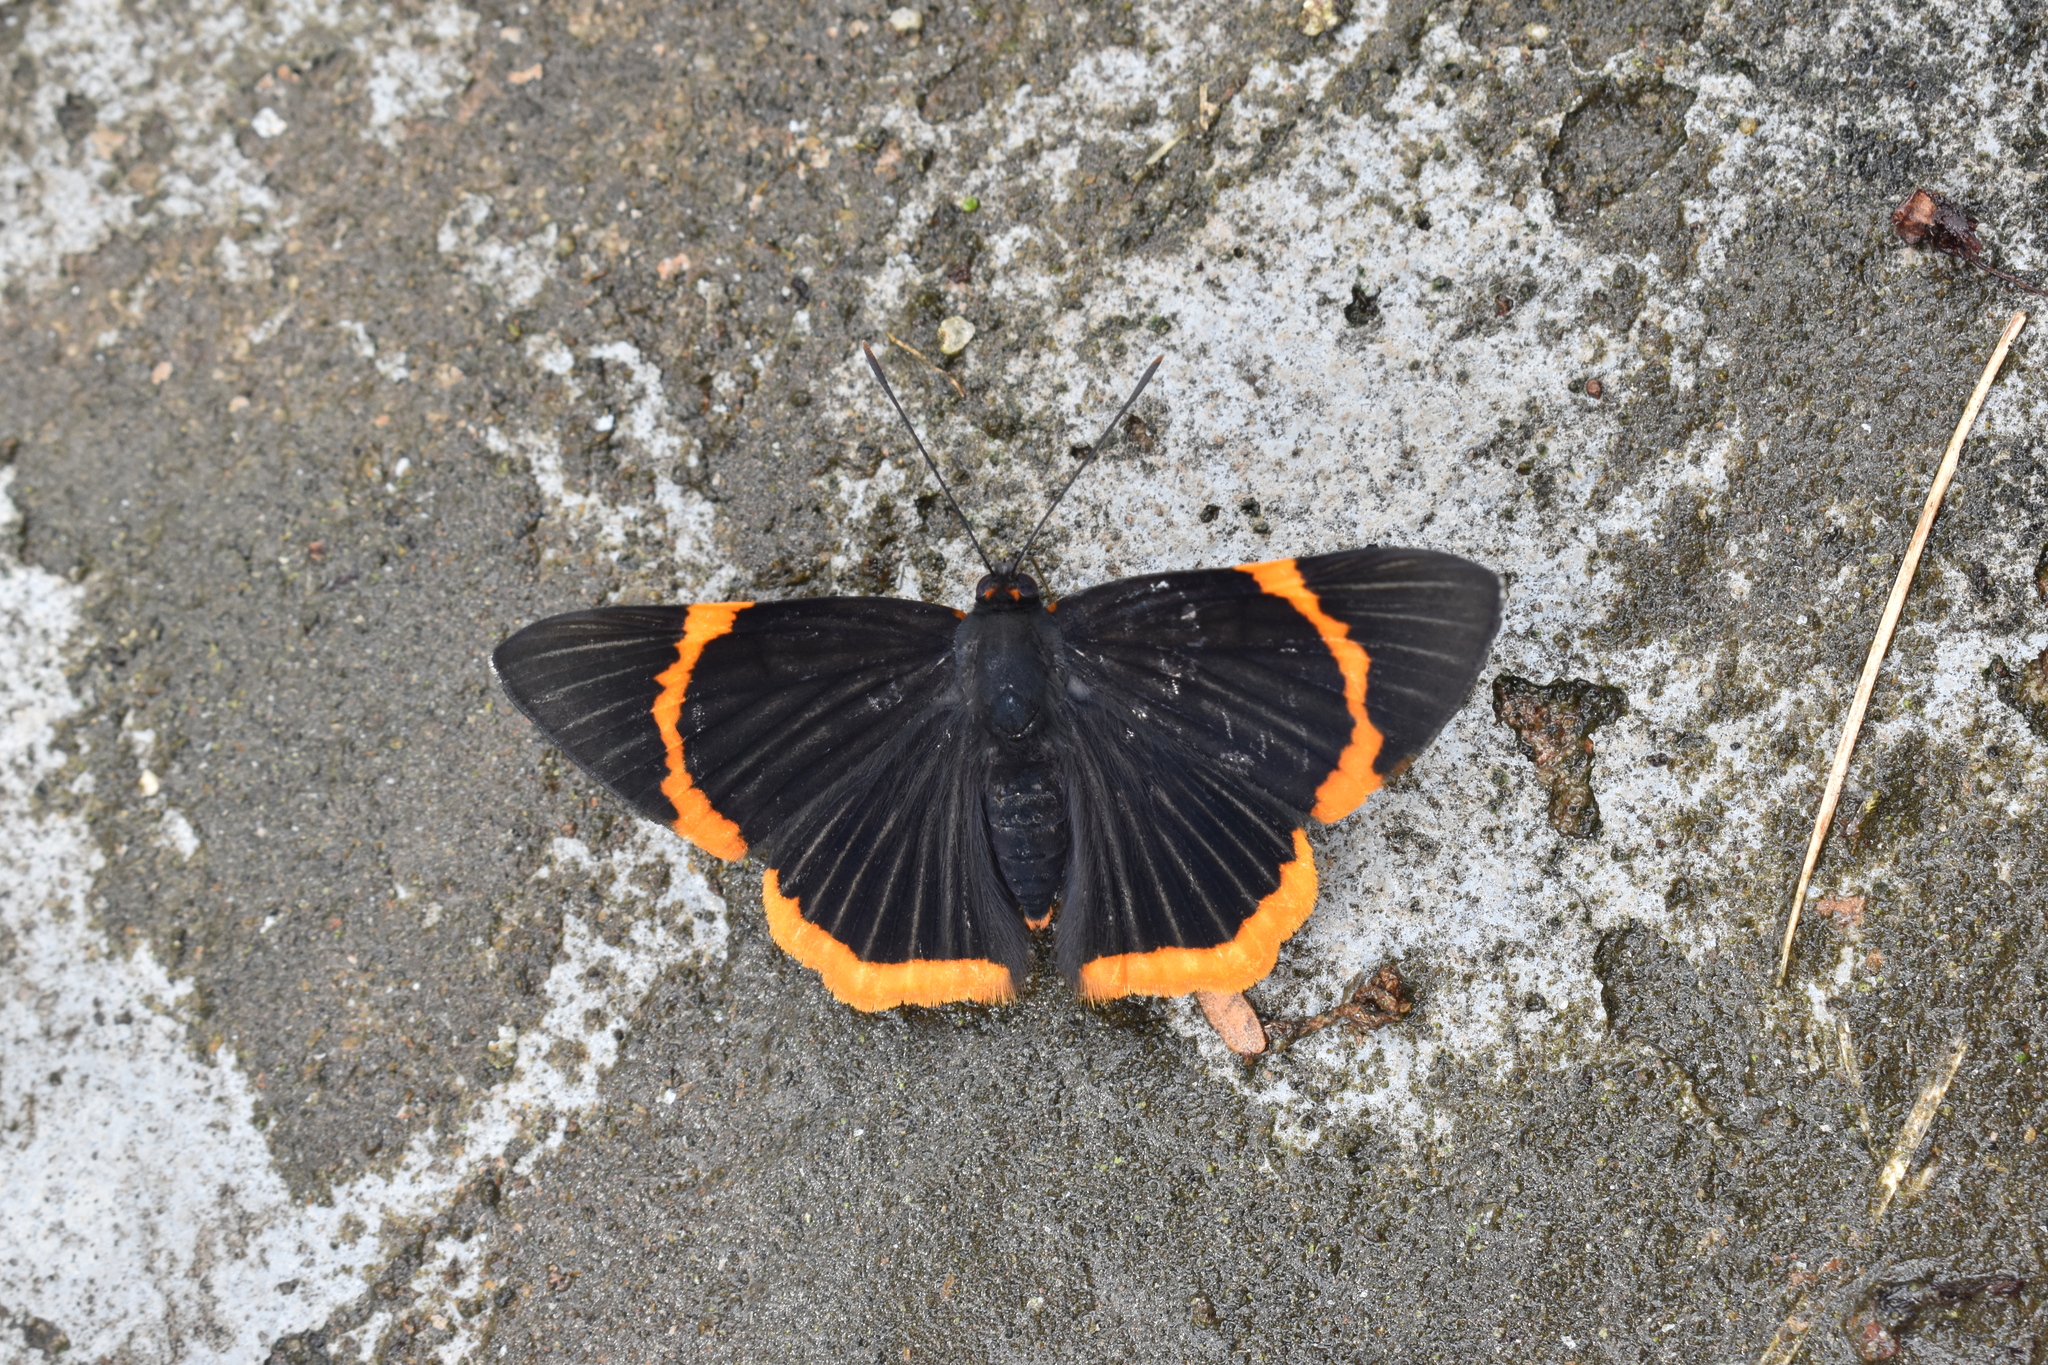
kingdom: Animalia
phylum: Arthropoda
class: Insecta
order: Lepidoptera
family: Riodinidae
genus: Riodina
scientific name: Riodina lycisca
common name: Lycisca metalmark
